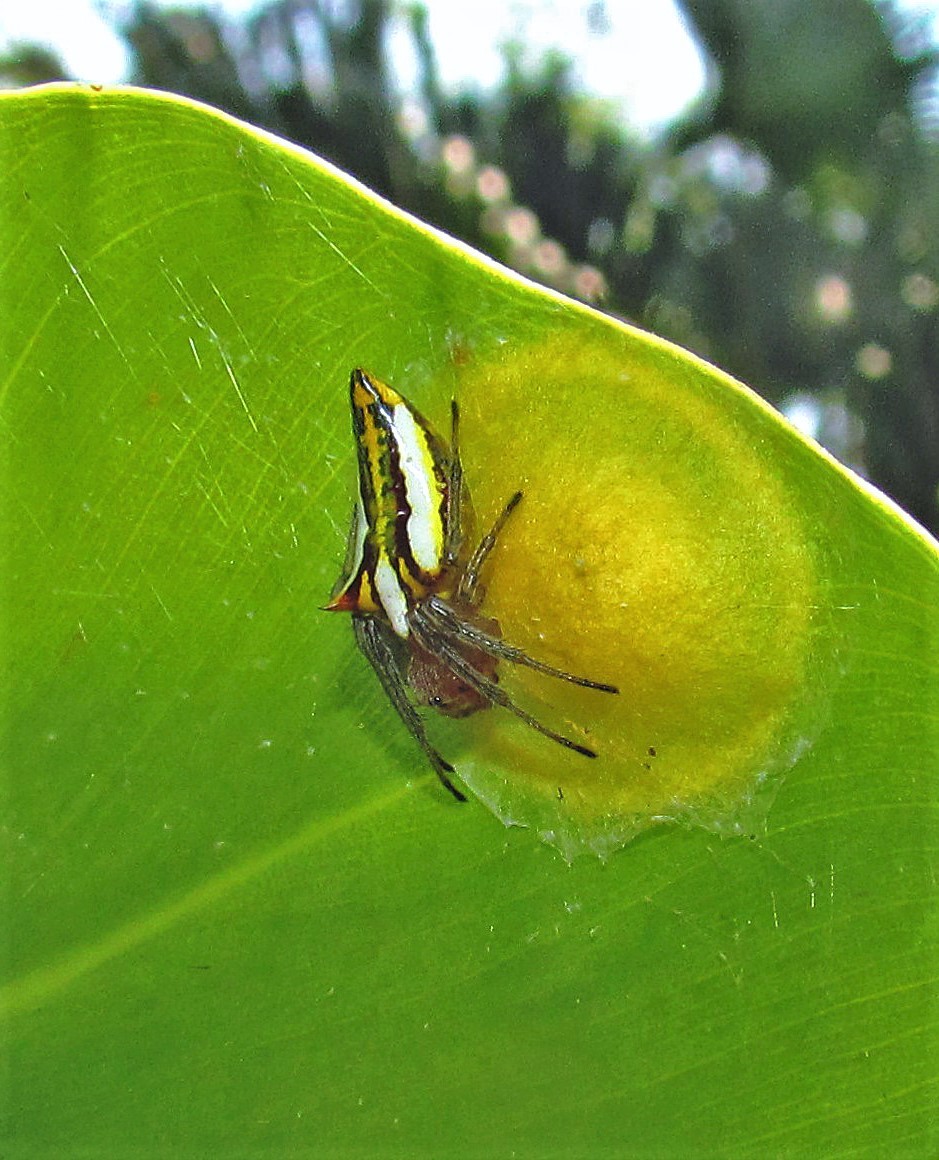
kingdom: Animalia
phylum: Arthropoda
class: Arachnida
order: Araneae
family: Araneidae
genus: Alpaida
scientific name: Alpaida bicornuta
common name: Orb weavers
